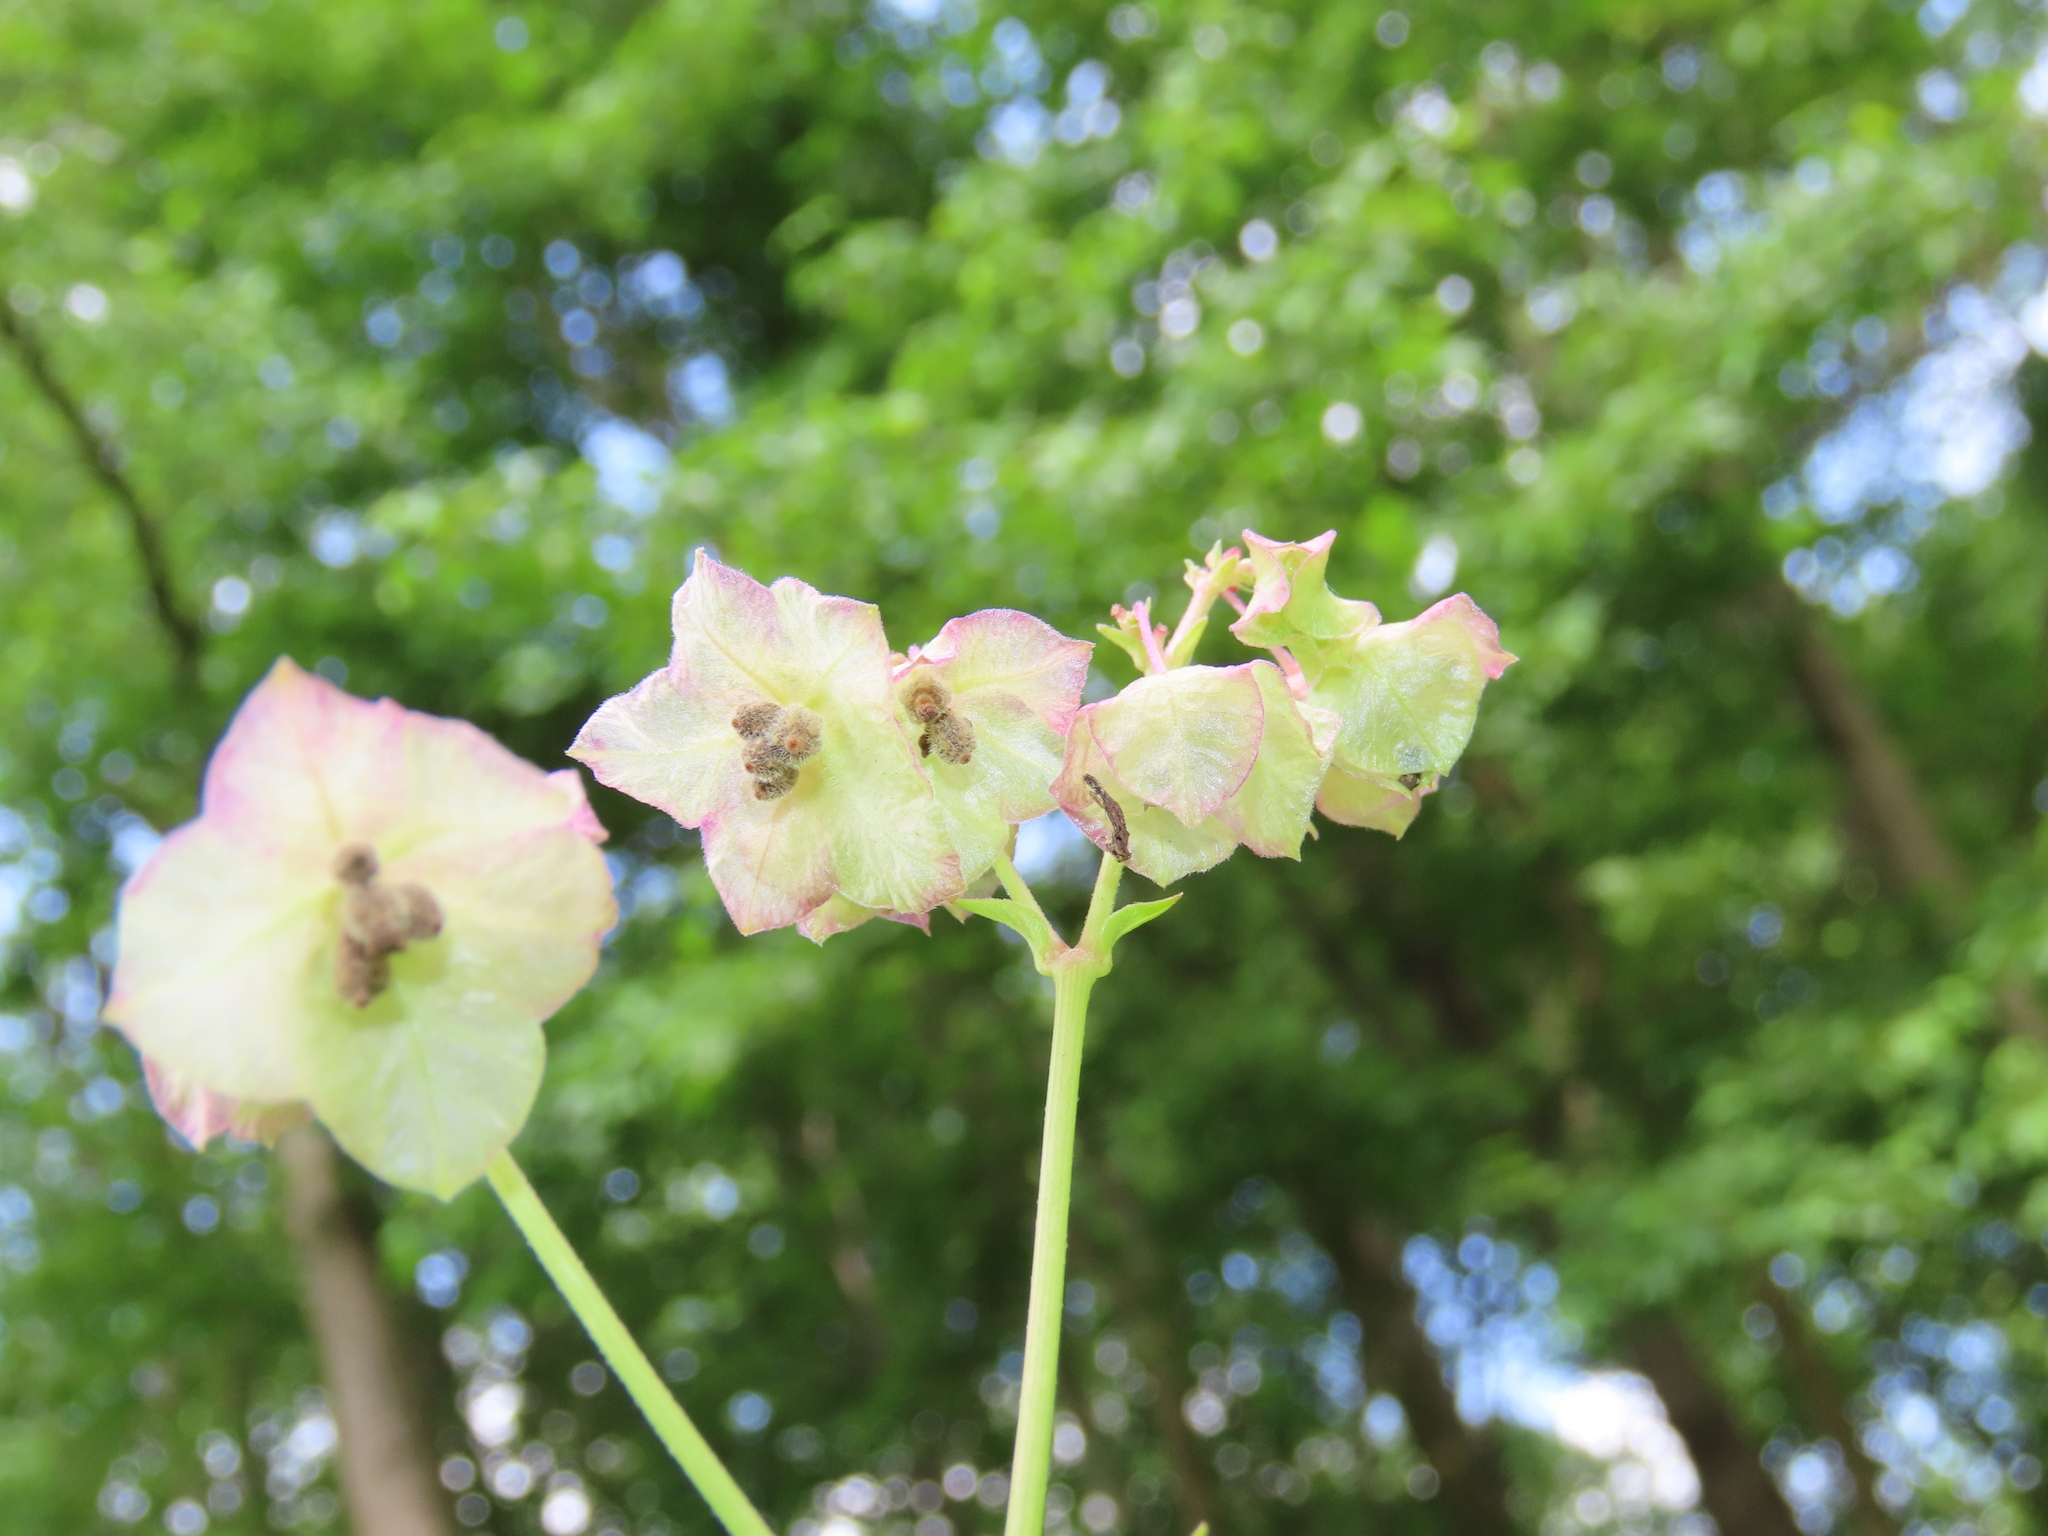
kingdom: Plantae
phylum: Tracheophyta
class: Magnoliopsida
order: Caryophyllales
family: Nyctaginaceae
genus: Mirabilis
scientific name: Mirabilis nyctaginea
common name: Umbrella wort
